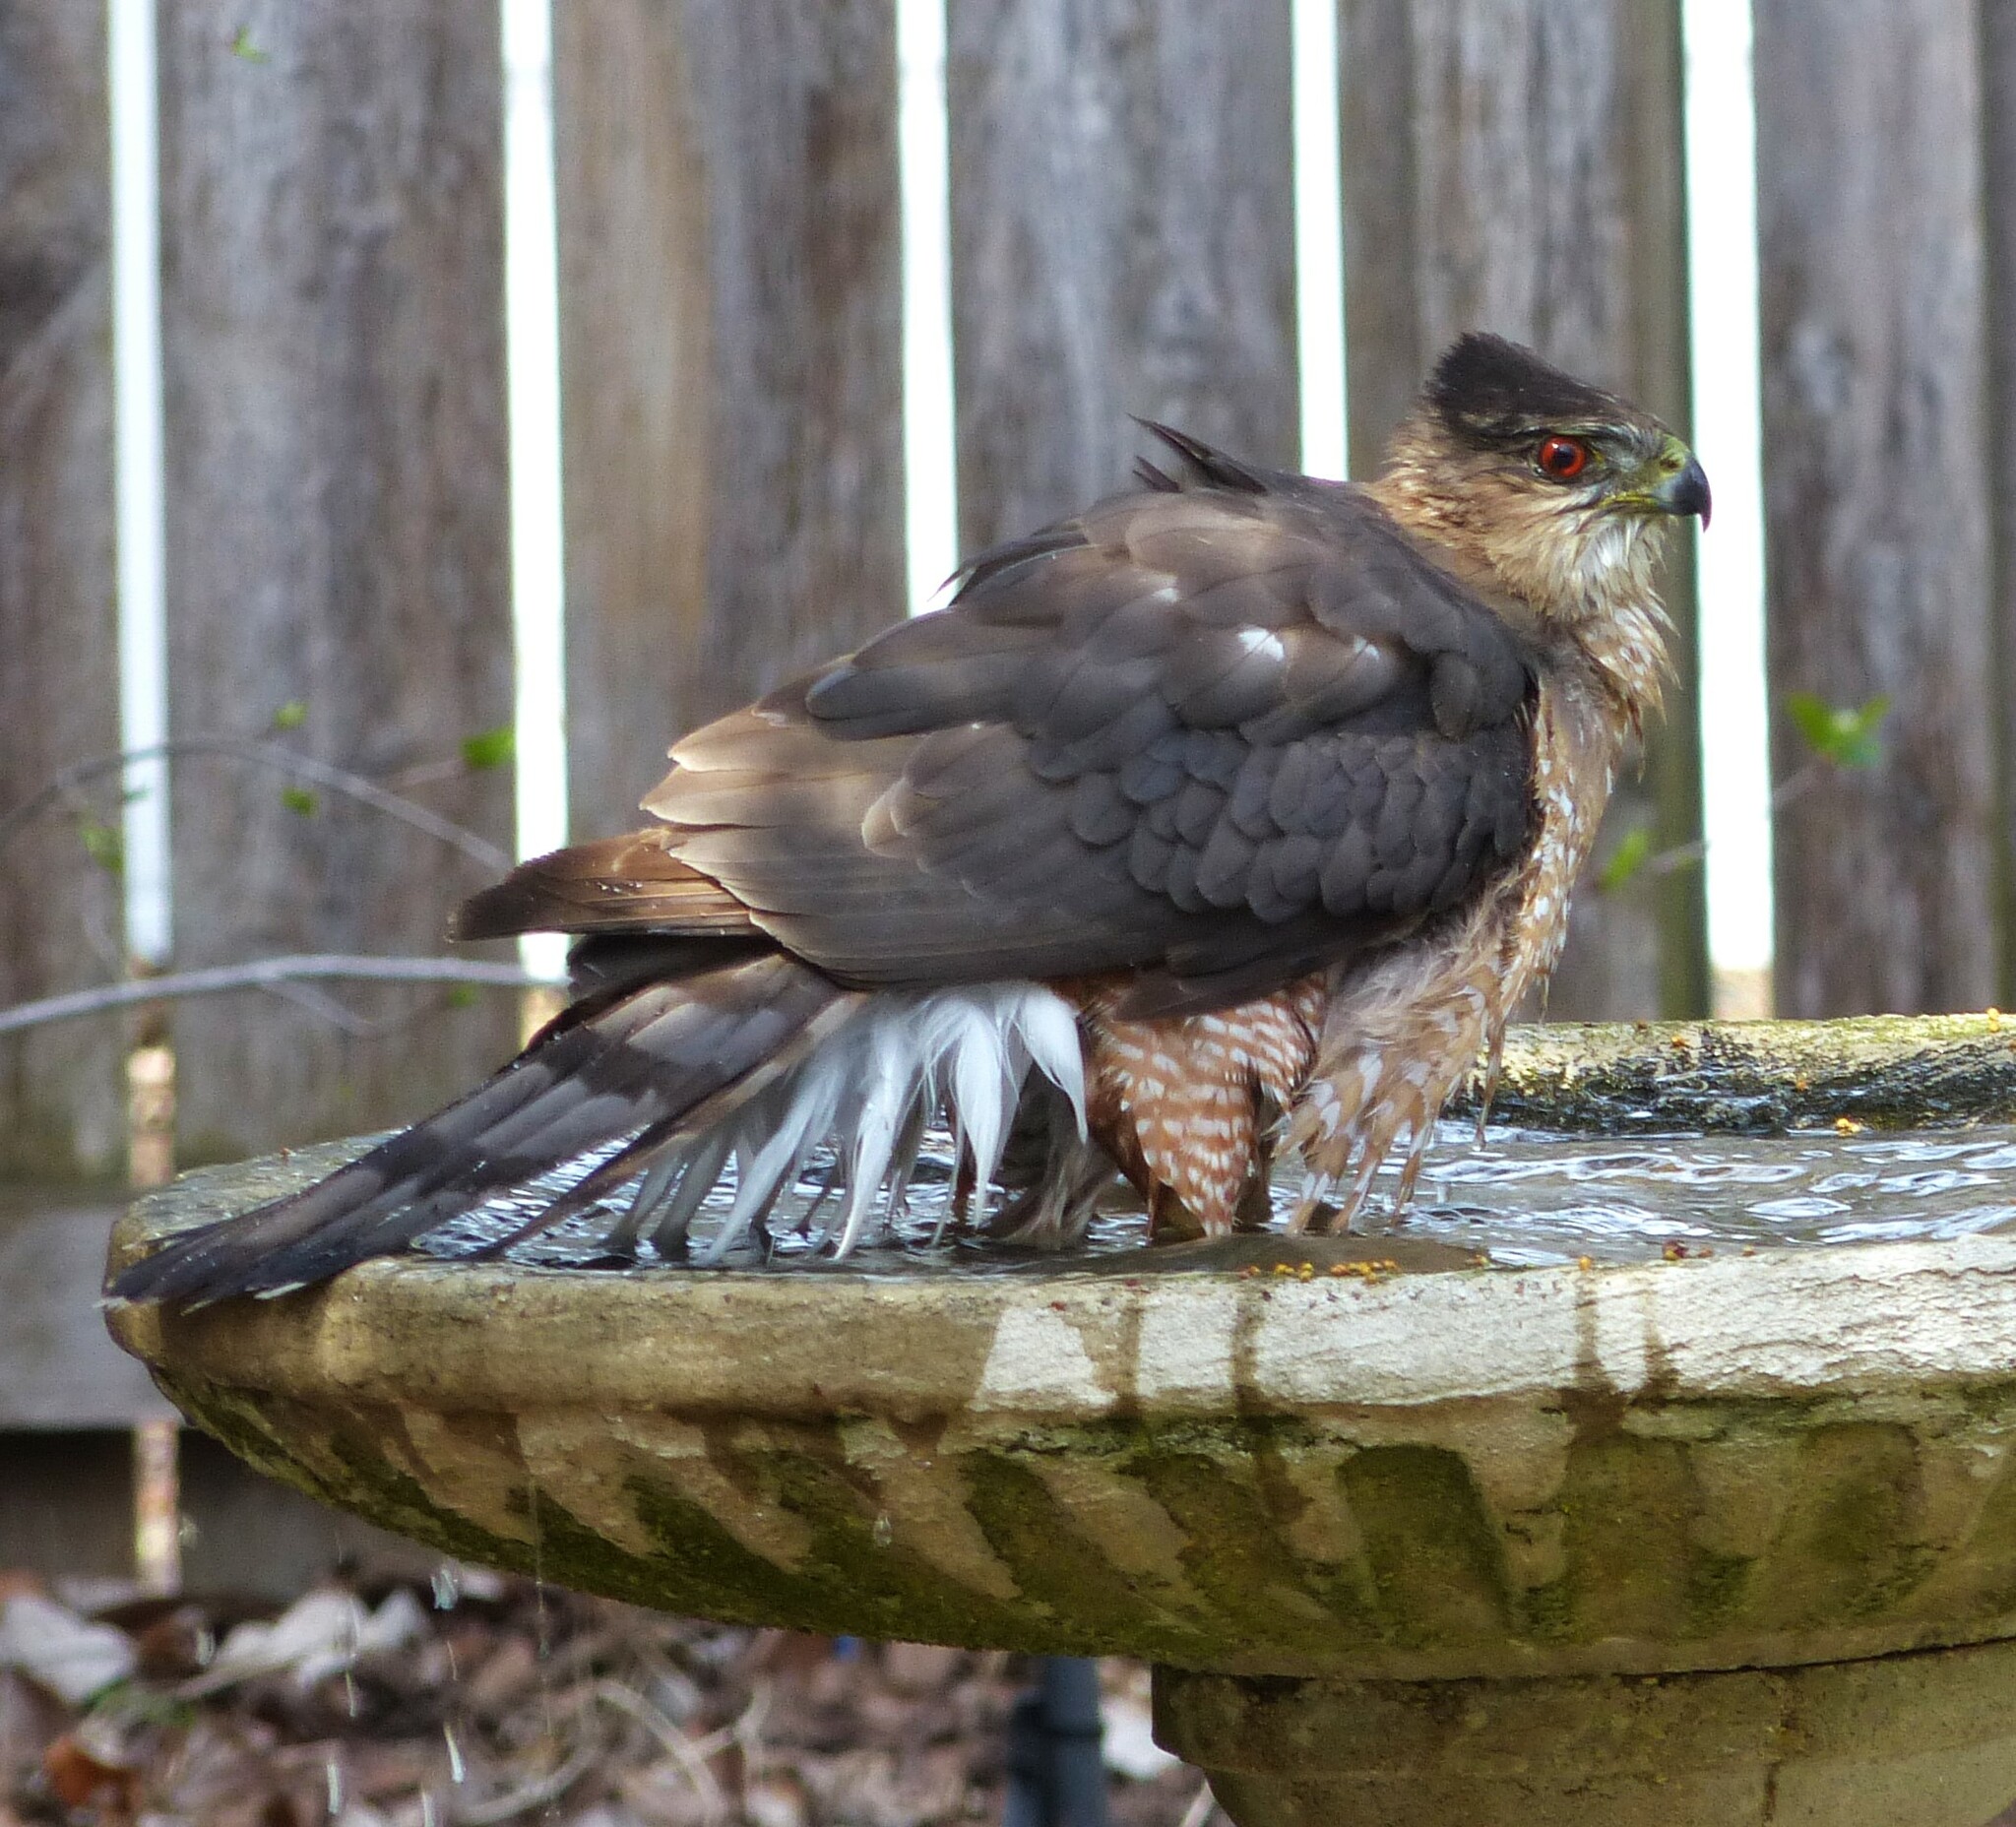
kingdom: Animalia
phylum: Chordata
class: Aves
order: Accipitriformes
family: Accipitridae
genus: Accipiter
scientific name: Accipiter cooperii
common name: Cooper's hawk
